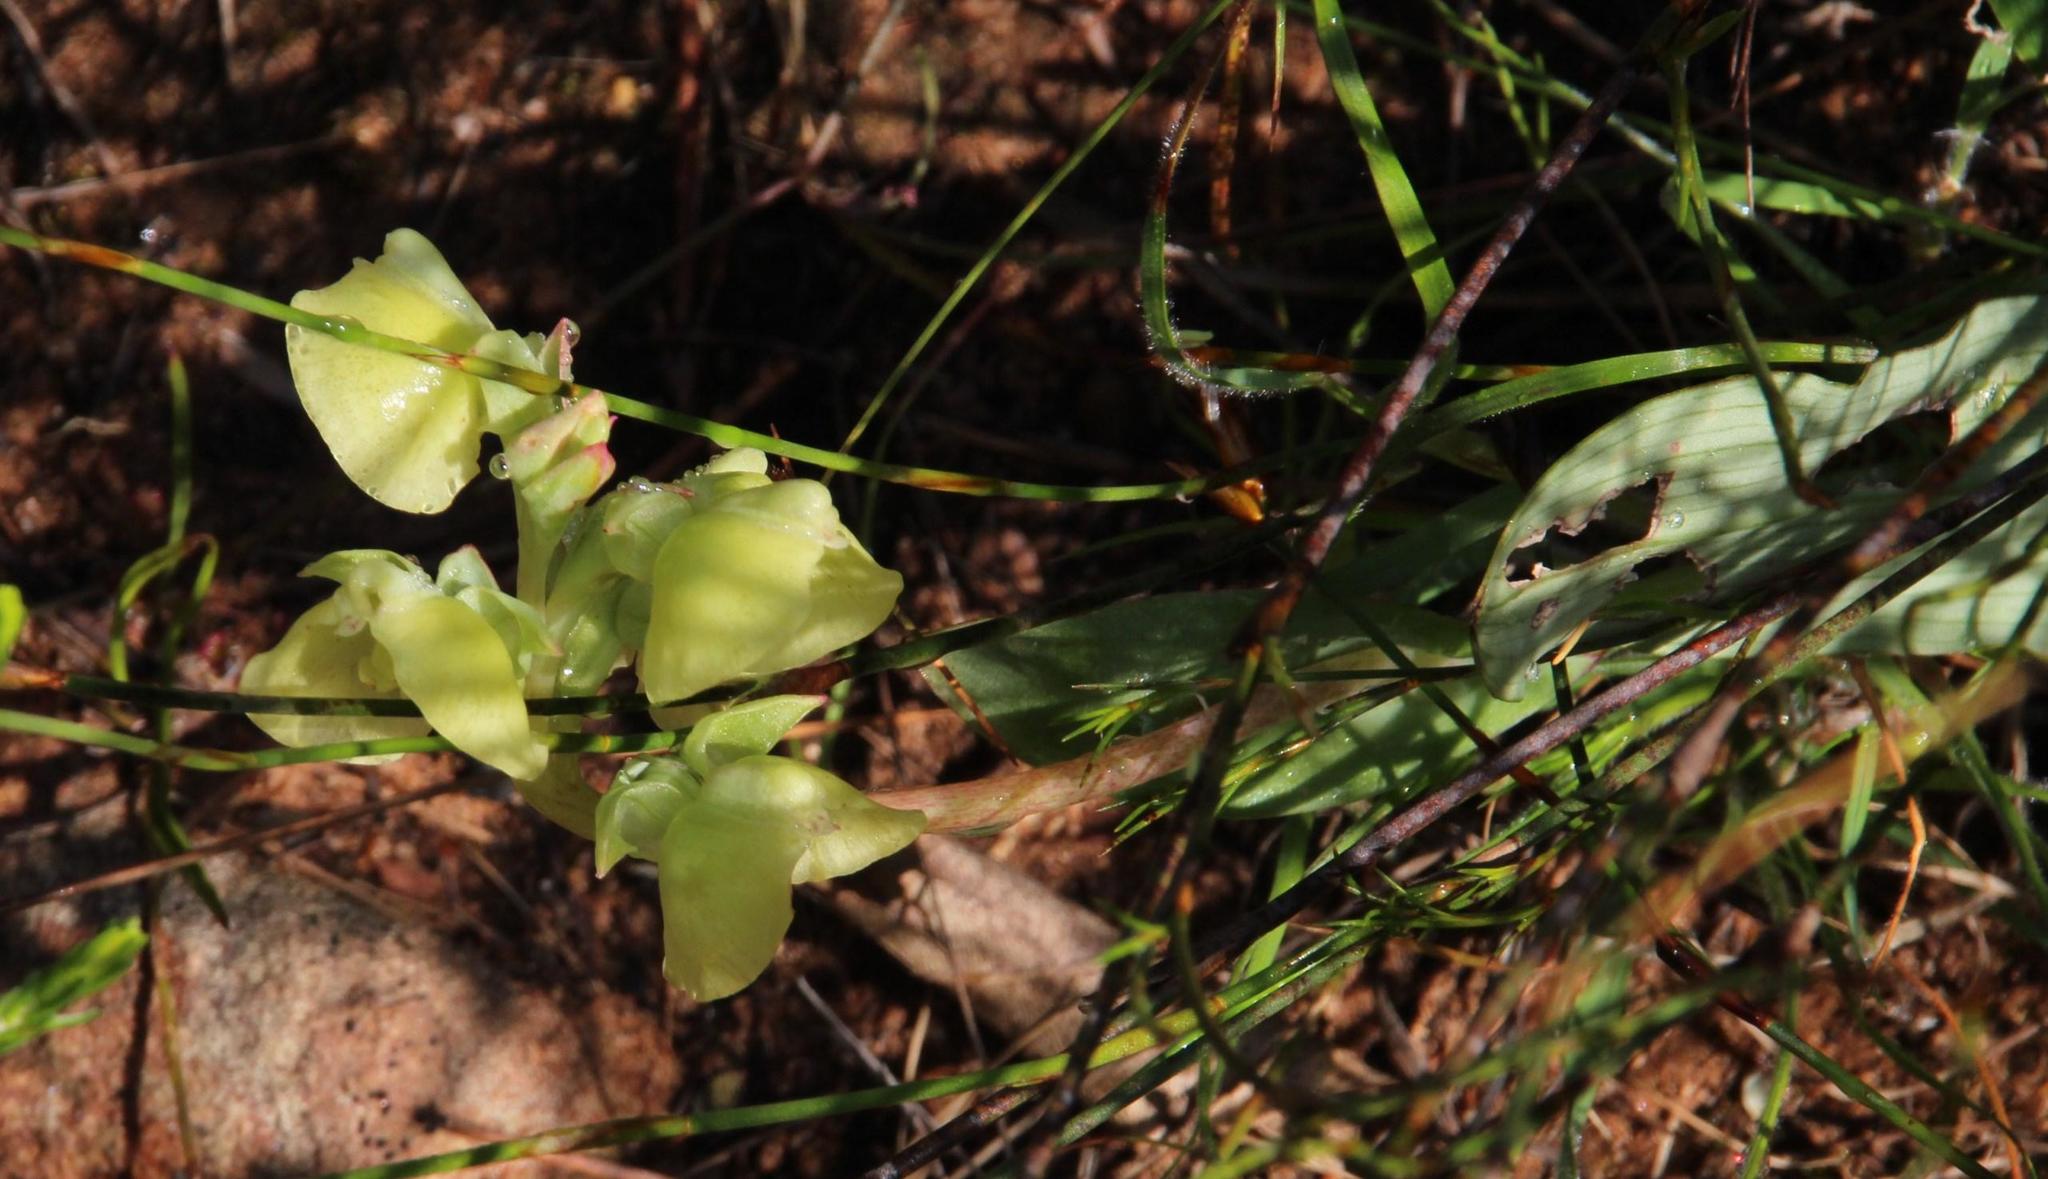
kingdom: Plantae
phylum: Tracheophyta
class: Liliopsida
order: Asparagales
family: Orchidaceae
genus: Pterygodium
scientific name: Pterygodium catholicum
